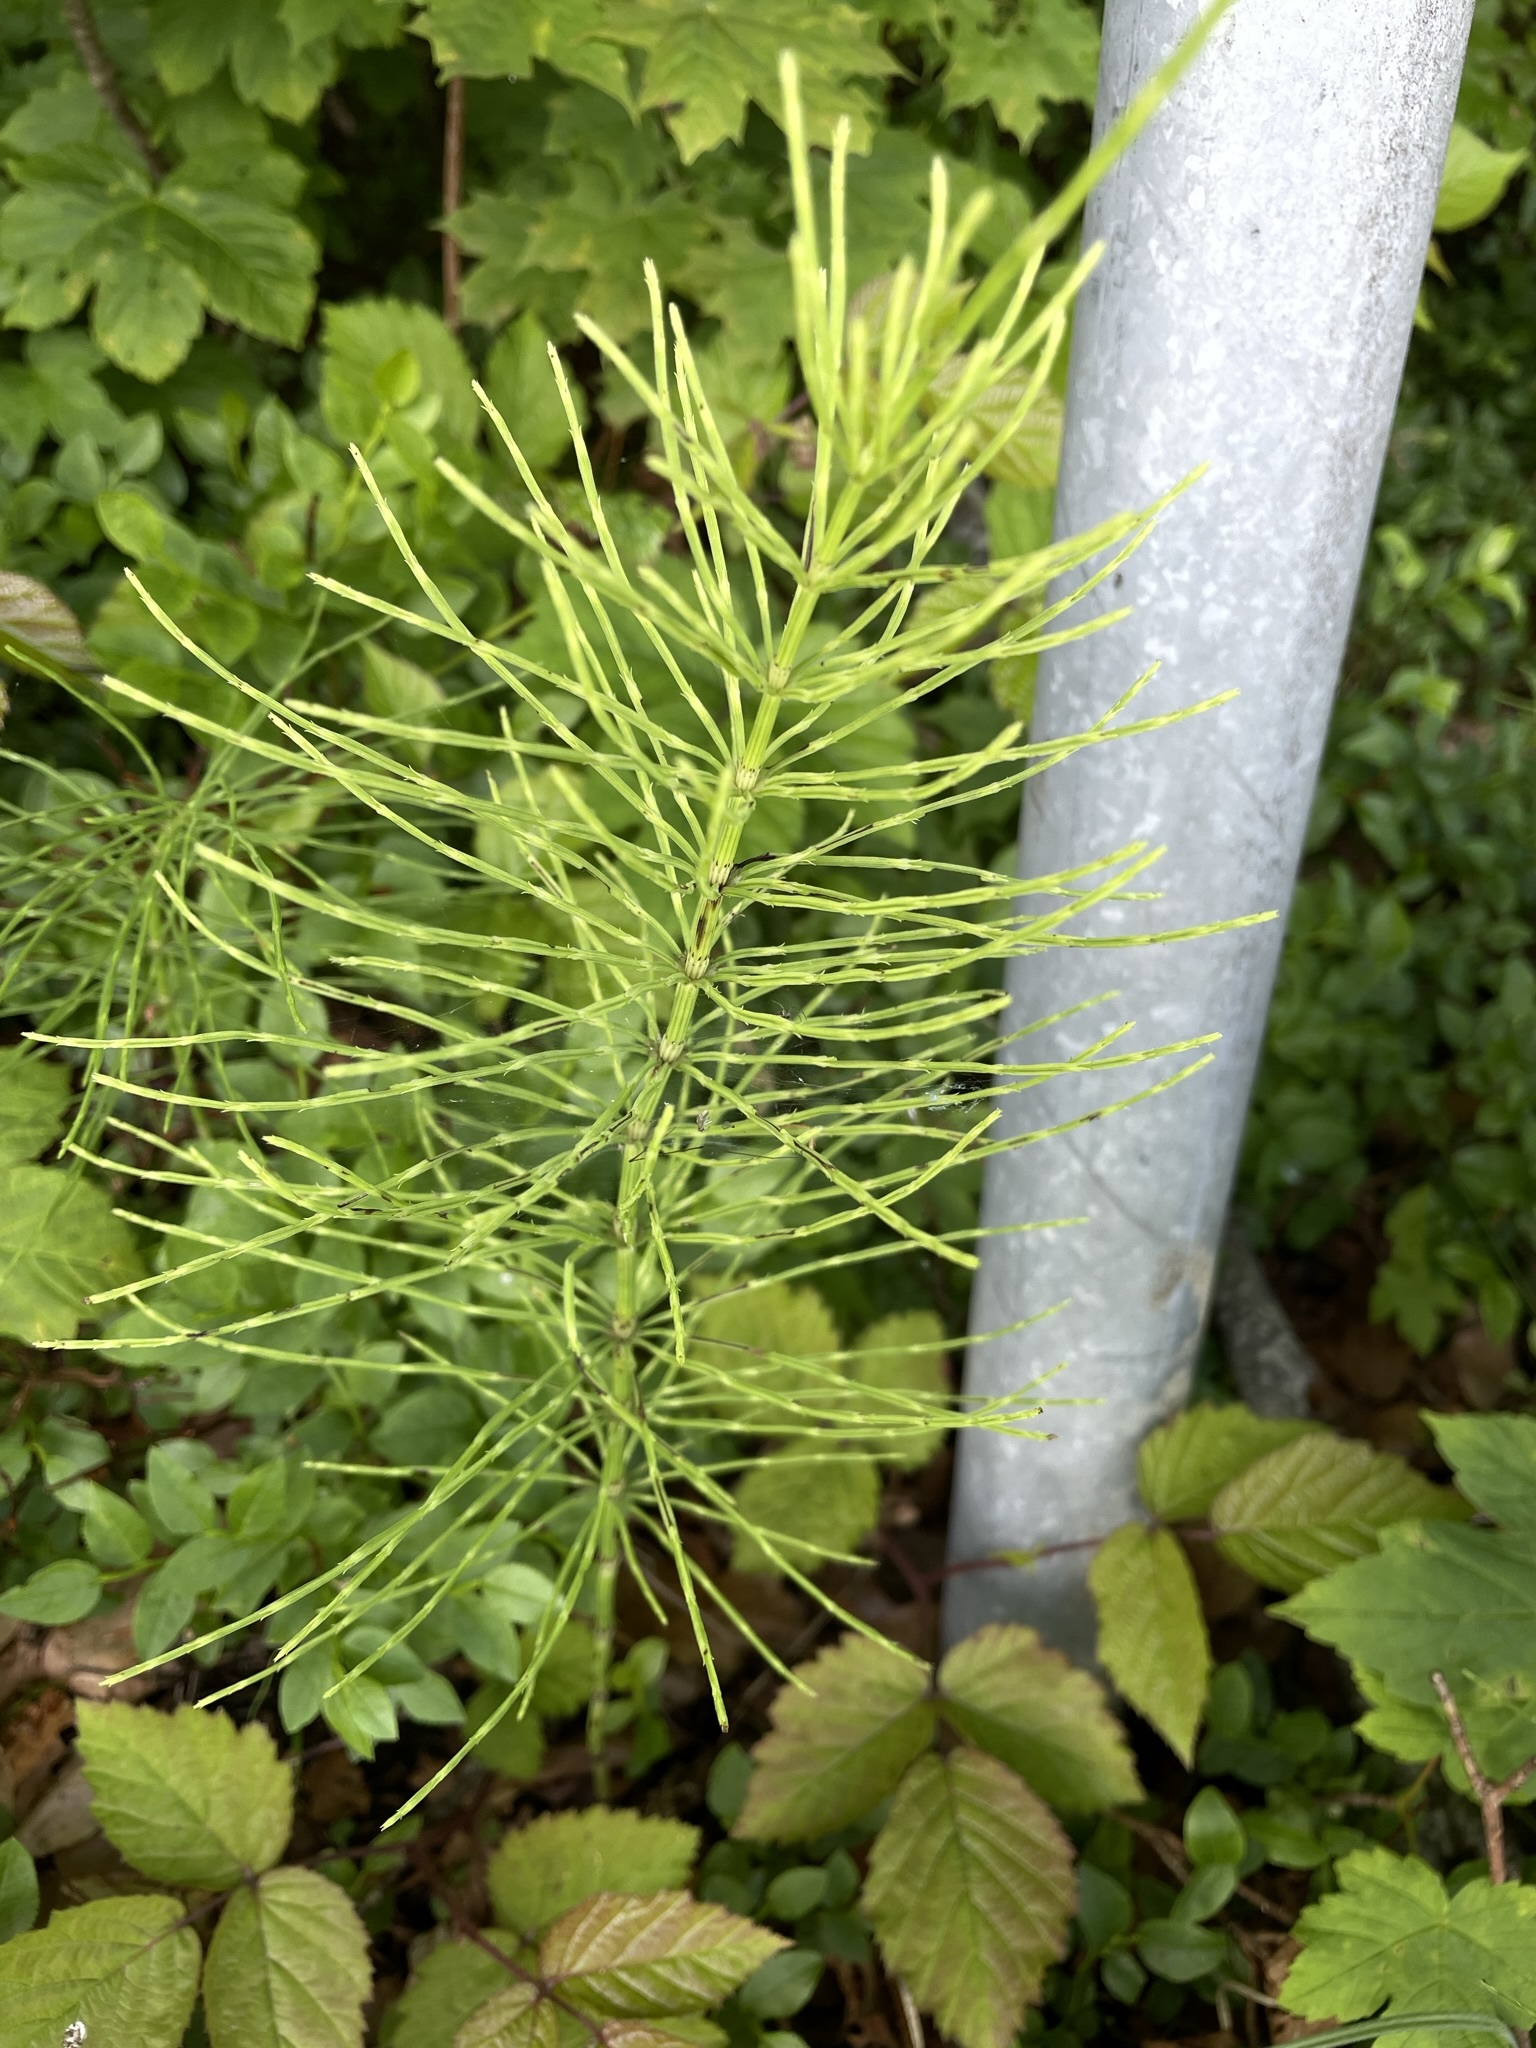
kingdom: Plantae
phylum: Tracheophyta
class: Polypodiopsida
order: Equisetales
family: Equisetaceae
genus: Equisetum
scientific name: Equisetum arvense
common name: Field horsetail
